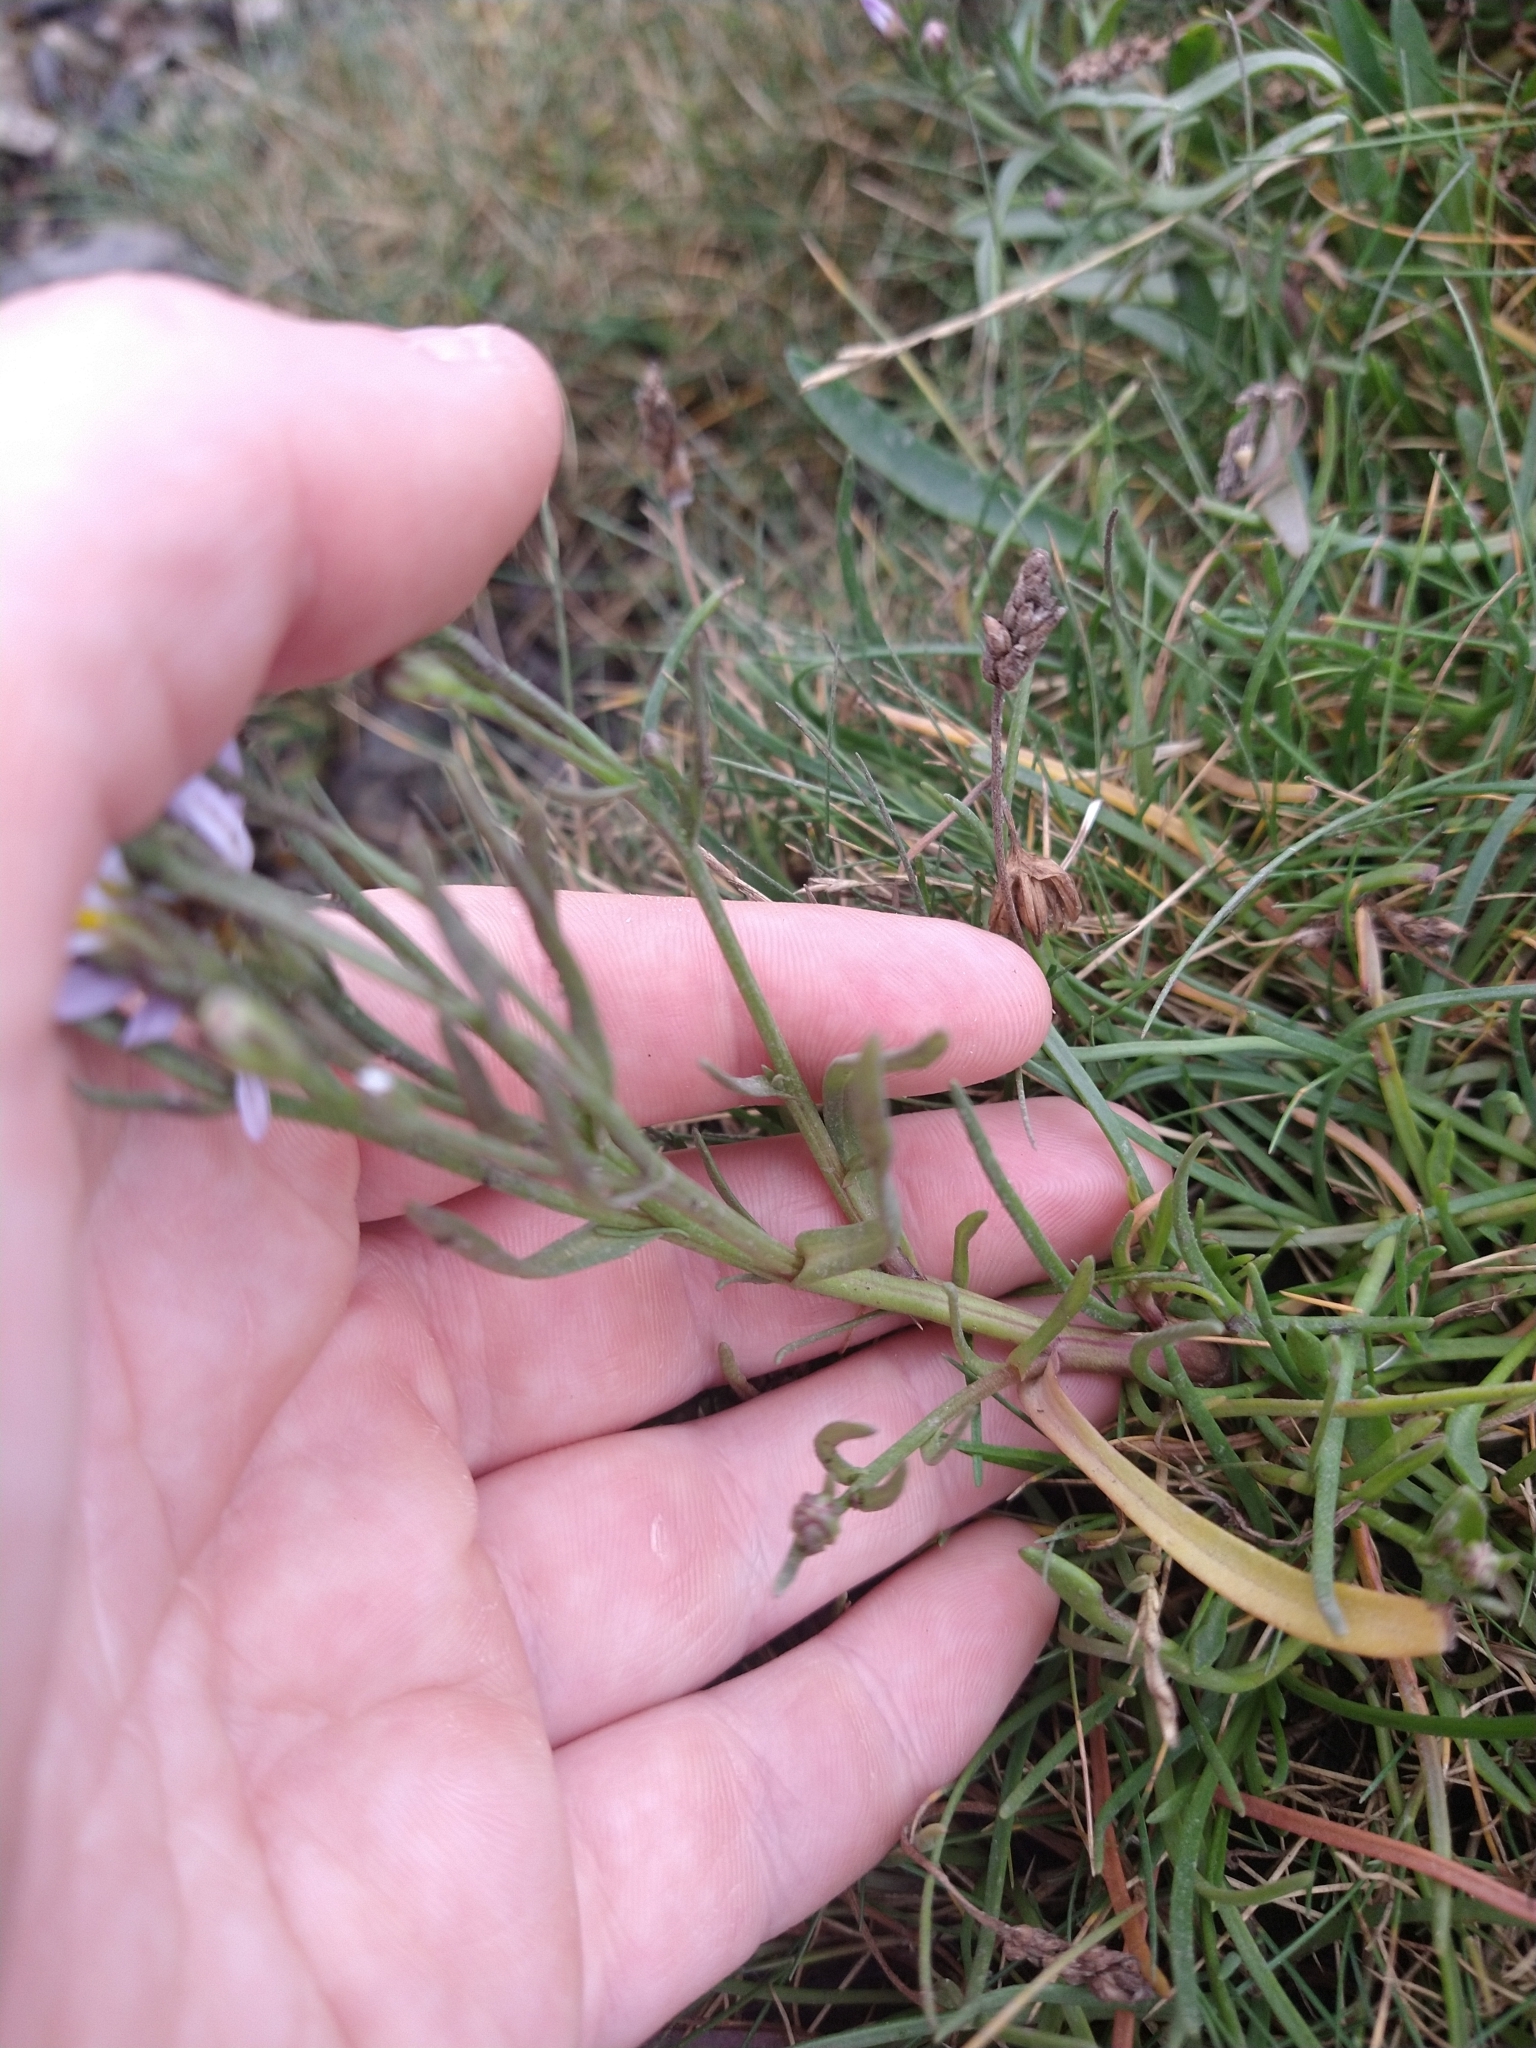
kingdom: Plantae
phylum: Tracheophyta
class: Magnoliopsida
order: Asterales
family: Asteraceae
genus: Tripolium
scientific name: Tripolium pannonicum
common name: Sea aster
